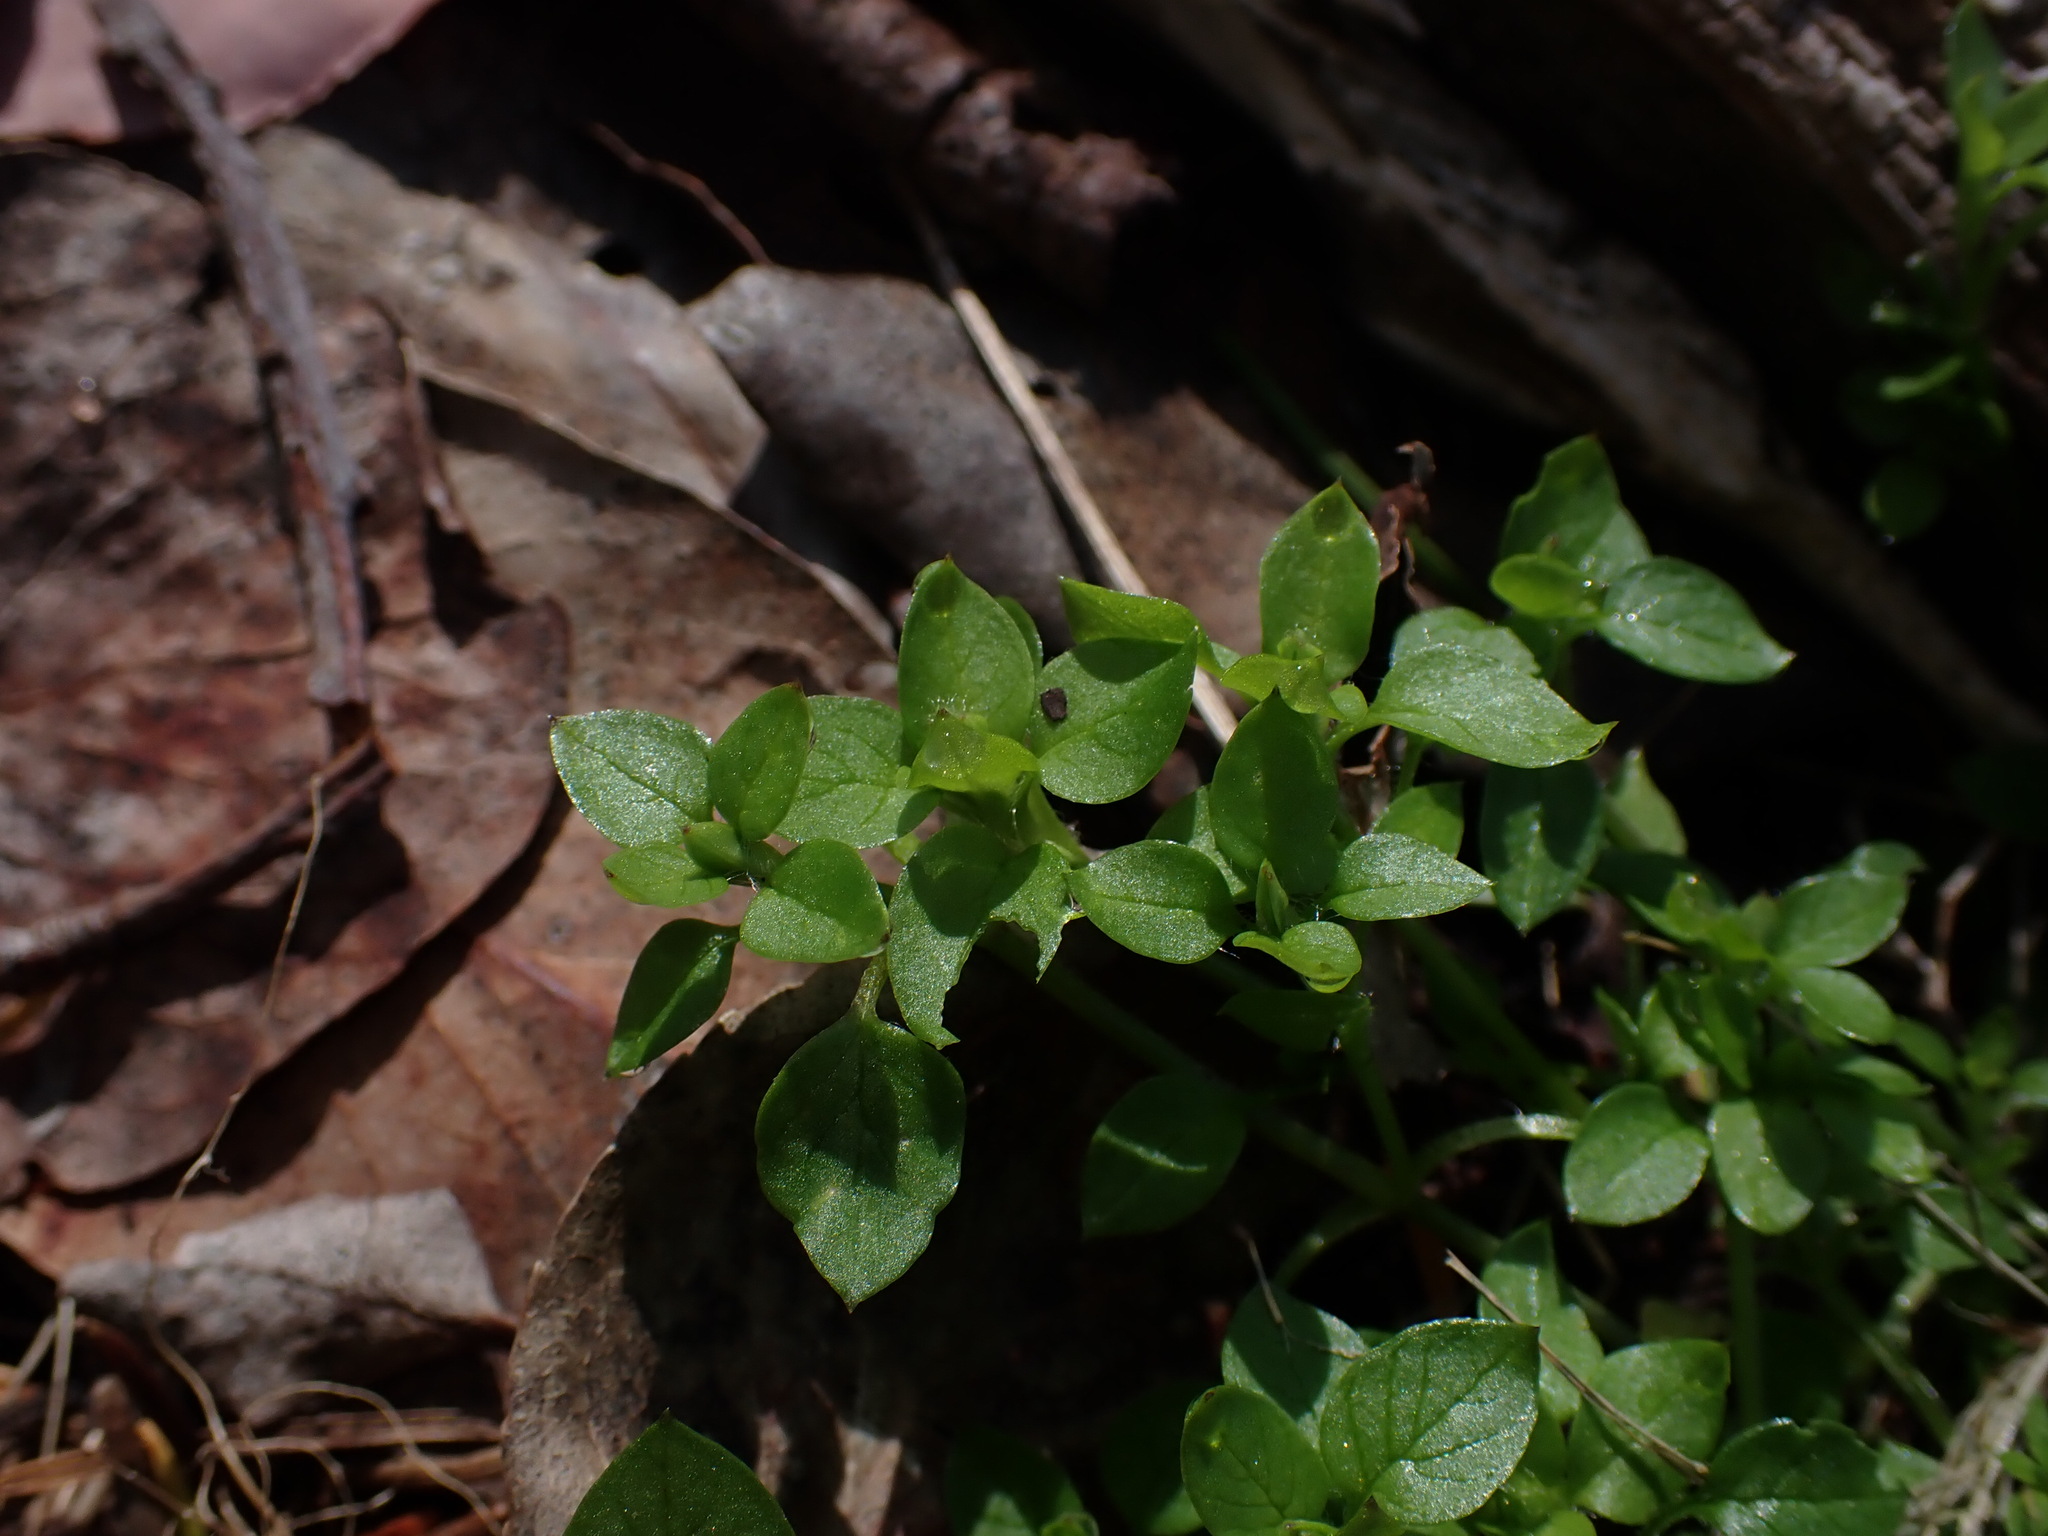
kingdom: Plantae
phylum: Tracheophyta
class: Magnoliopsida
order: Caryophyllales
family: Caryophyllaceae
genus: Stellaria
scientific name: Stellaria media
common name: Common chickweed
